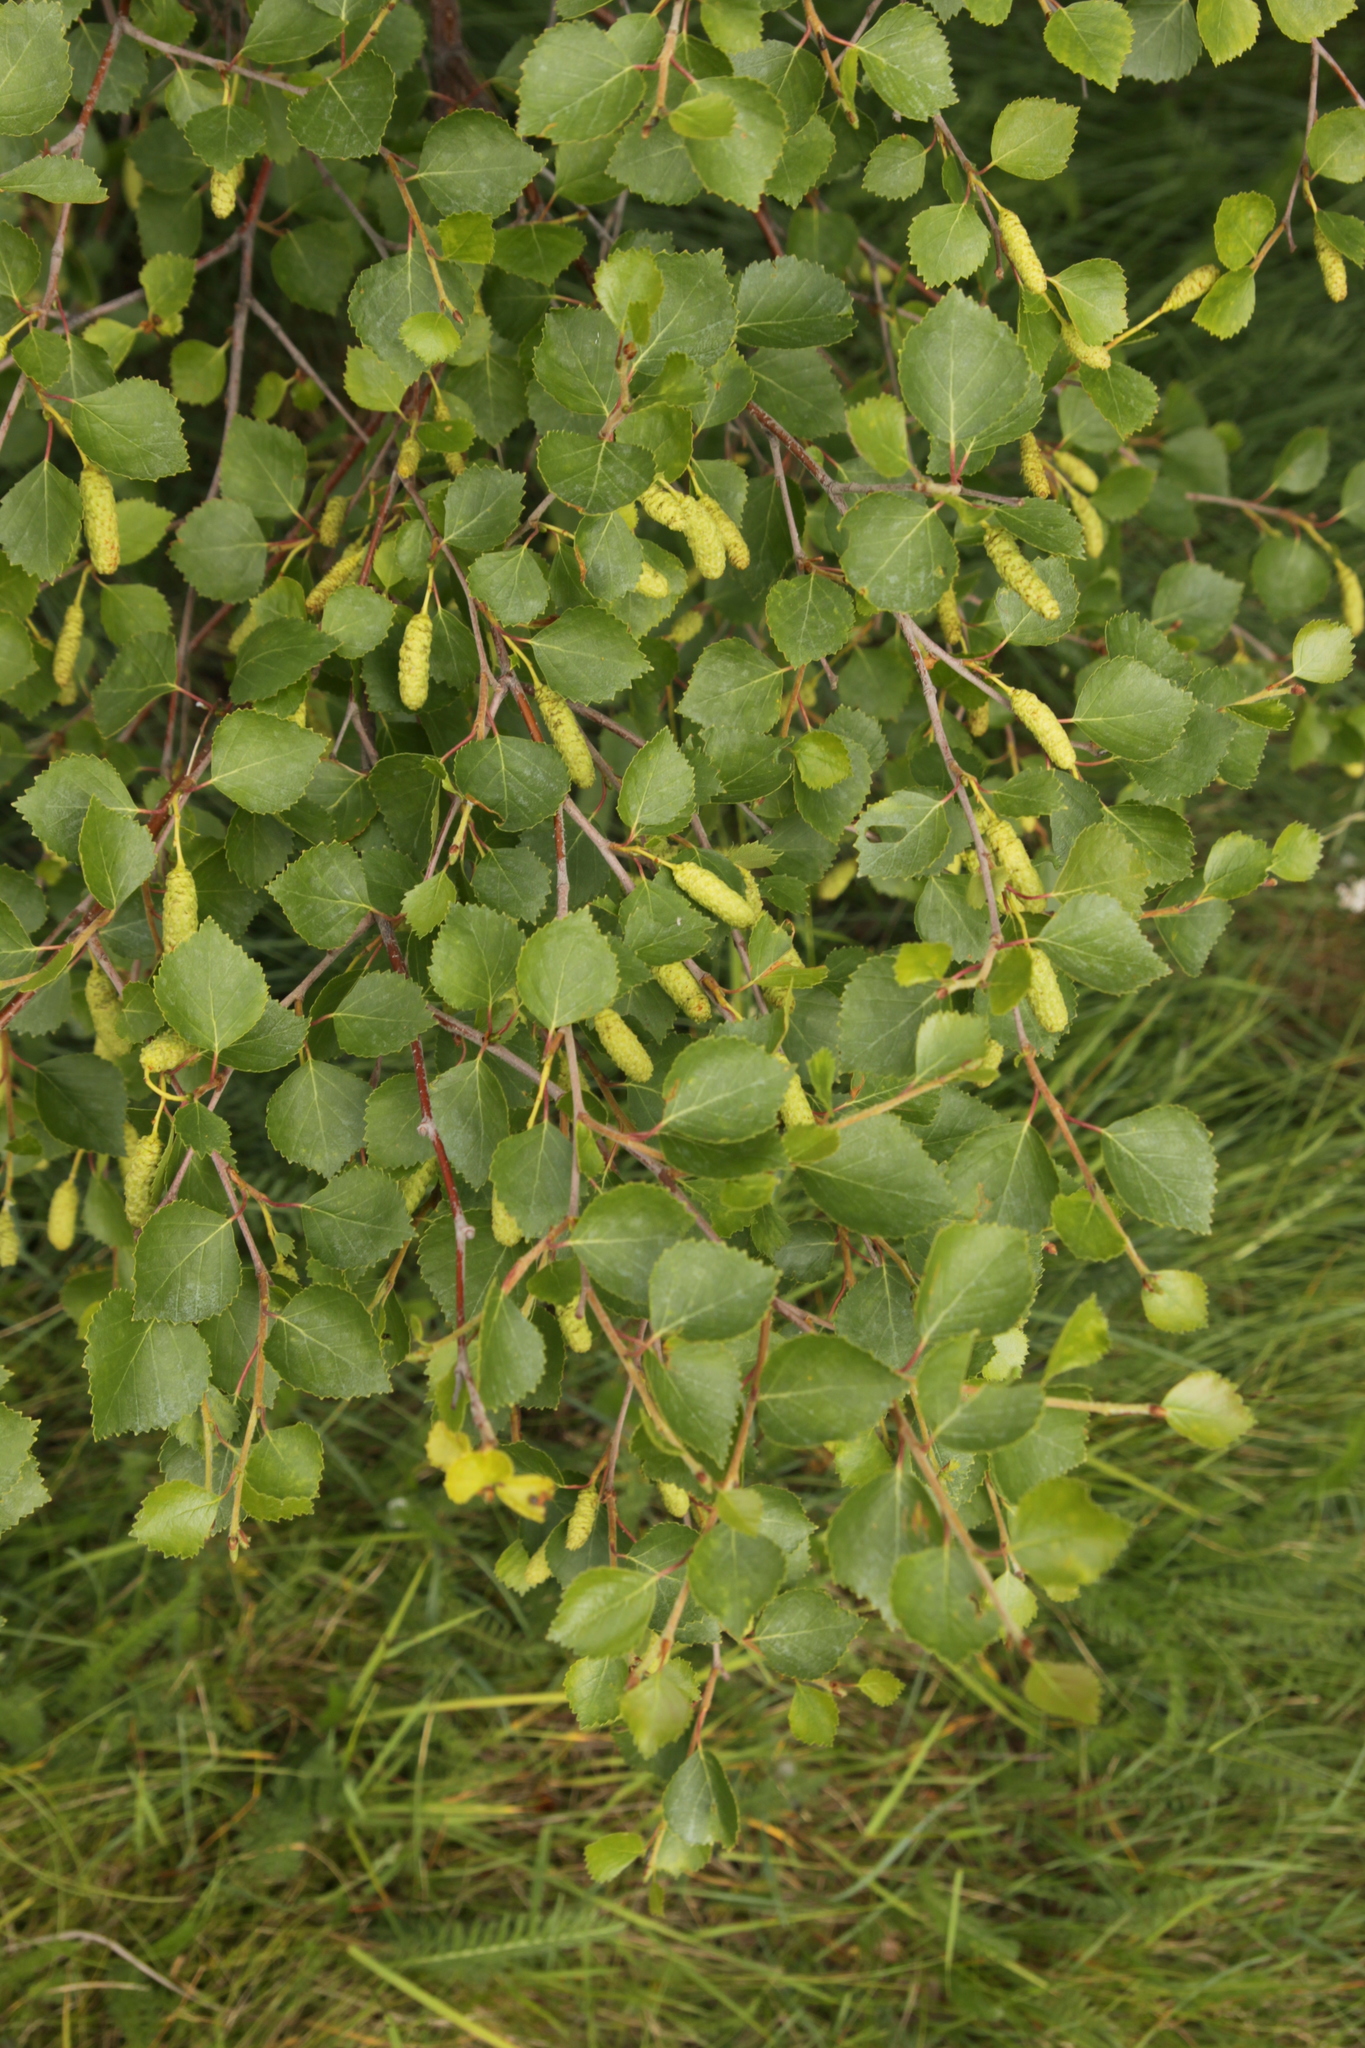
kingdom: Plantae
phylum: Tracheophyta
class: Magnoliopsida
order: Fagales
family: Betulaceae
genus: Betula
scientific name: Betula pubescens
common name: Downy birch
